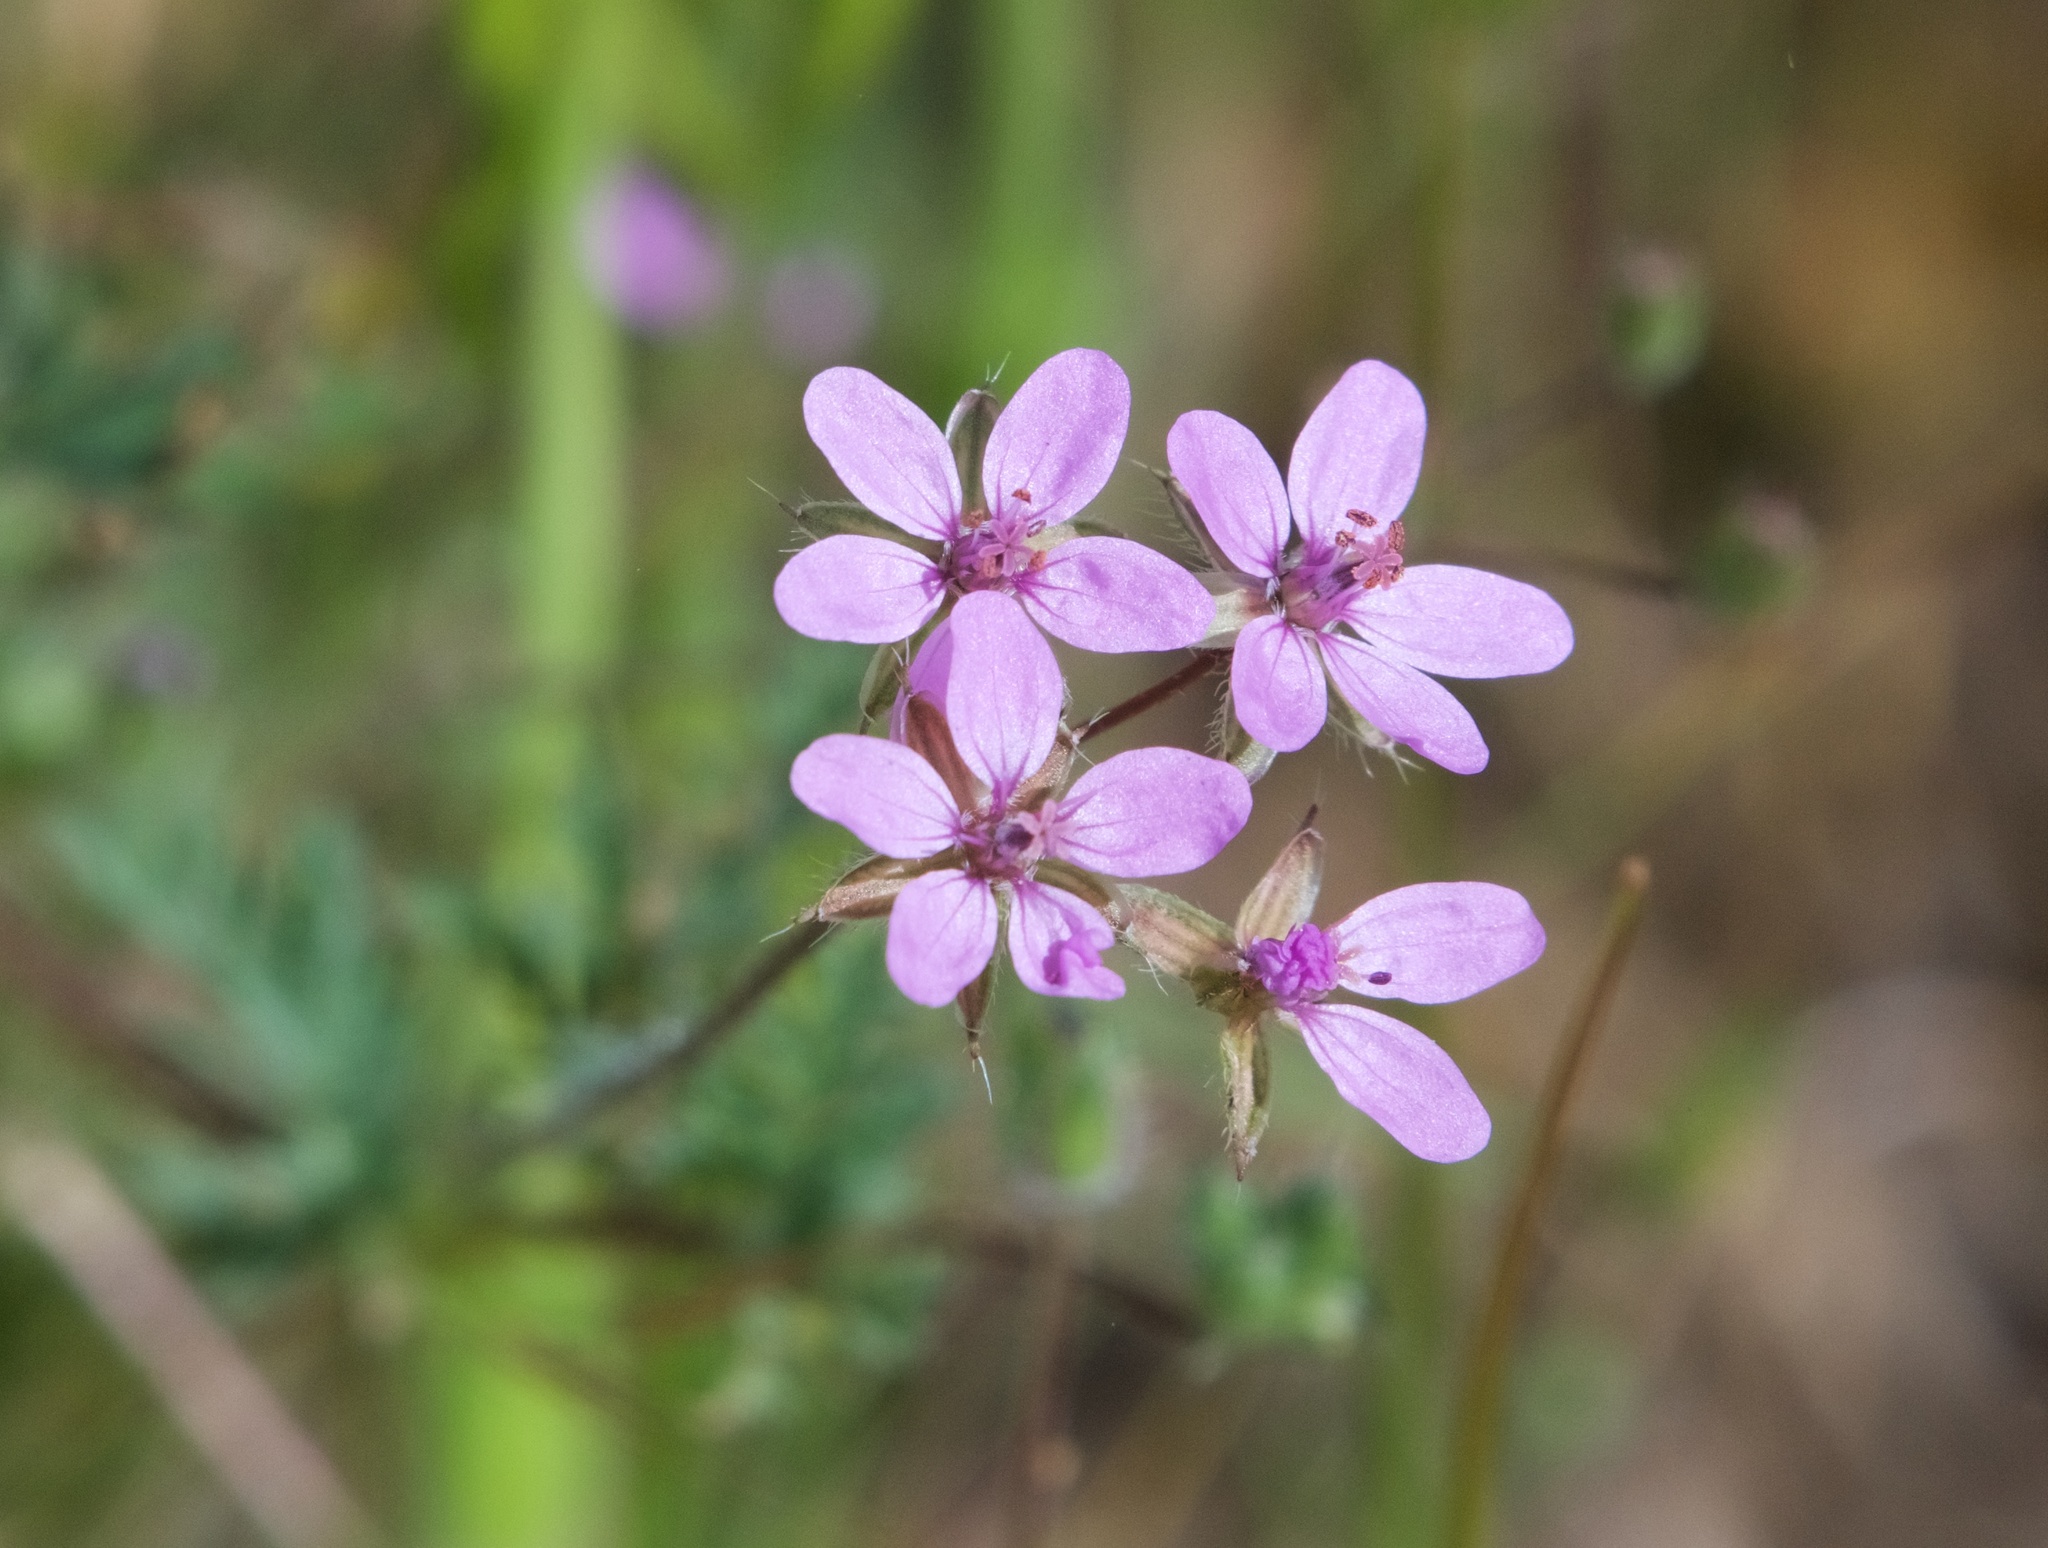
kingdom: Plantae
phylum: Tracheophyta
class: Magnoliopsida
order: Geraniales
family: Geraniaceae
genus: Erodium
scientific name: Erodium cicutarium
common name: Common stork's-bill
